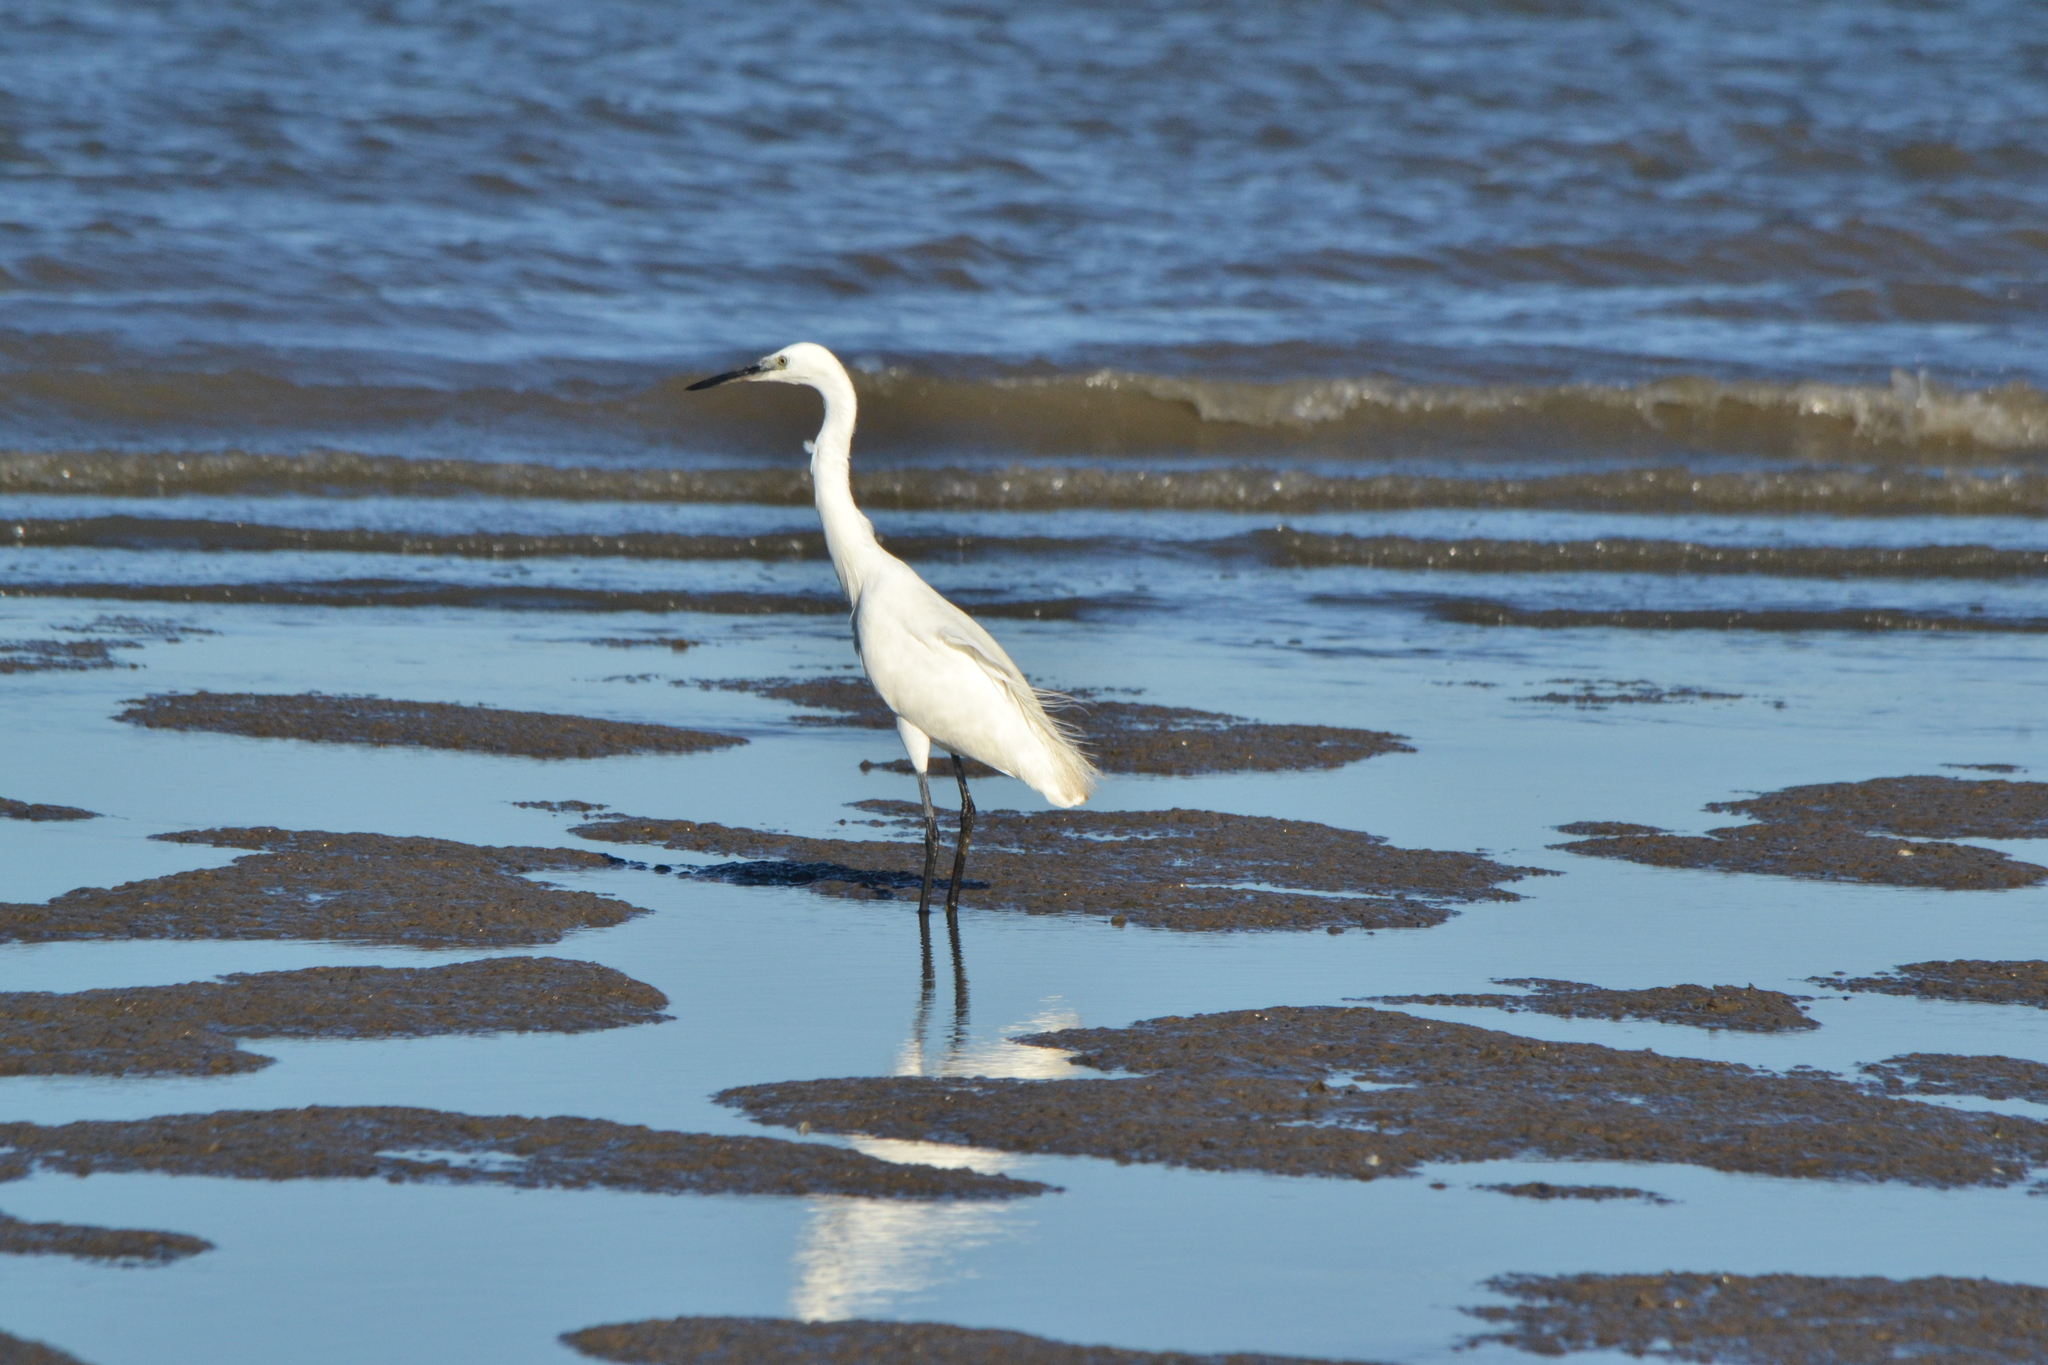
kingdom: Animalia
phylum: Chordata
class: Aves
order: Pelecaniformes
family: Ardeidae
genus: Egretta
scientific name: Egretta garzetta
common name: Little egret
